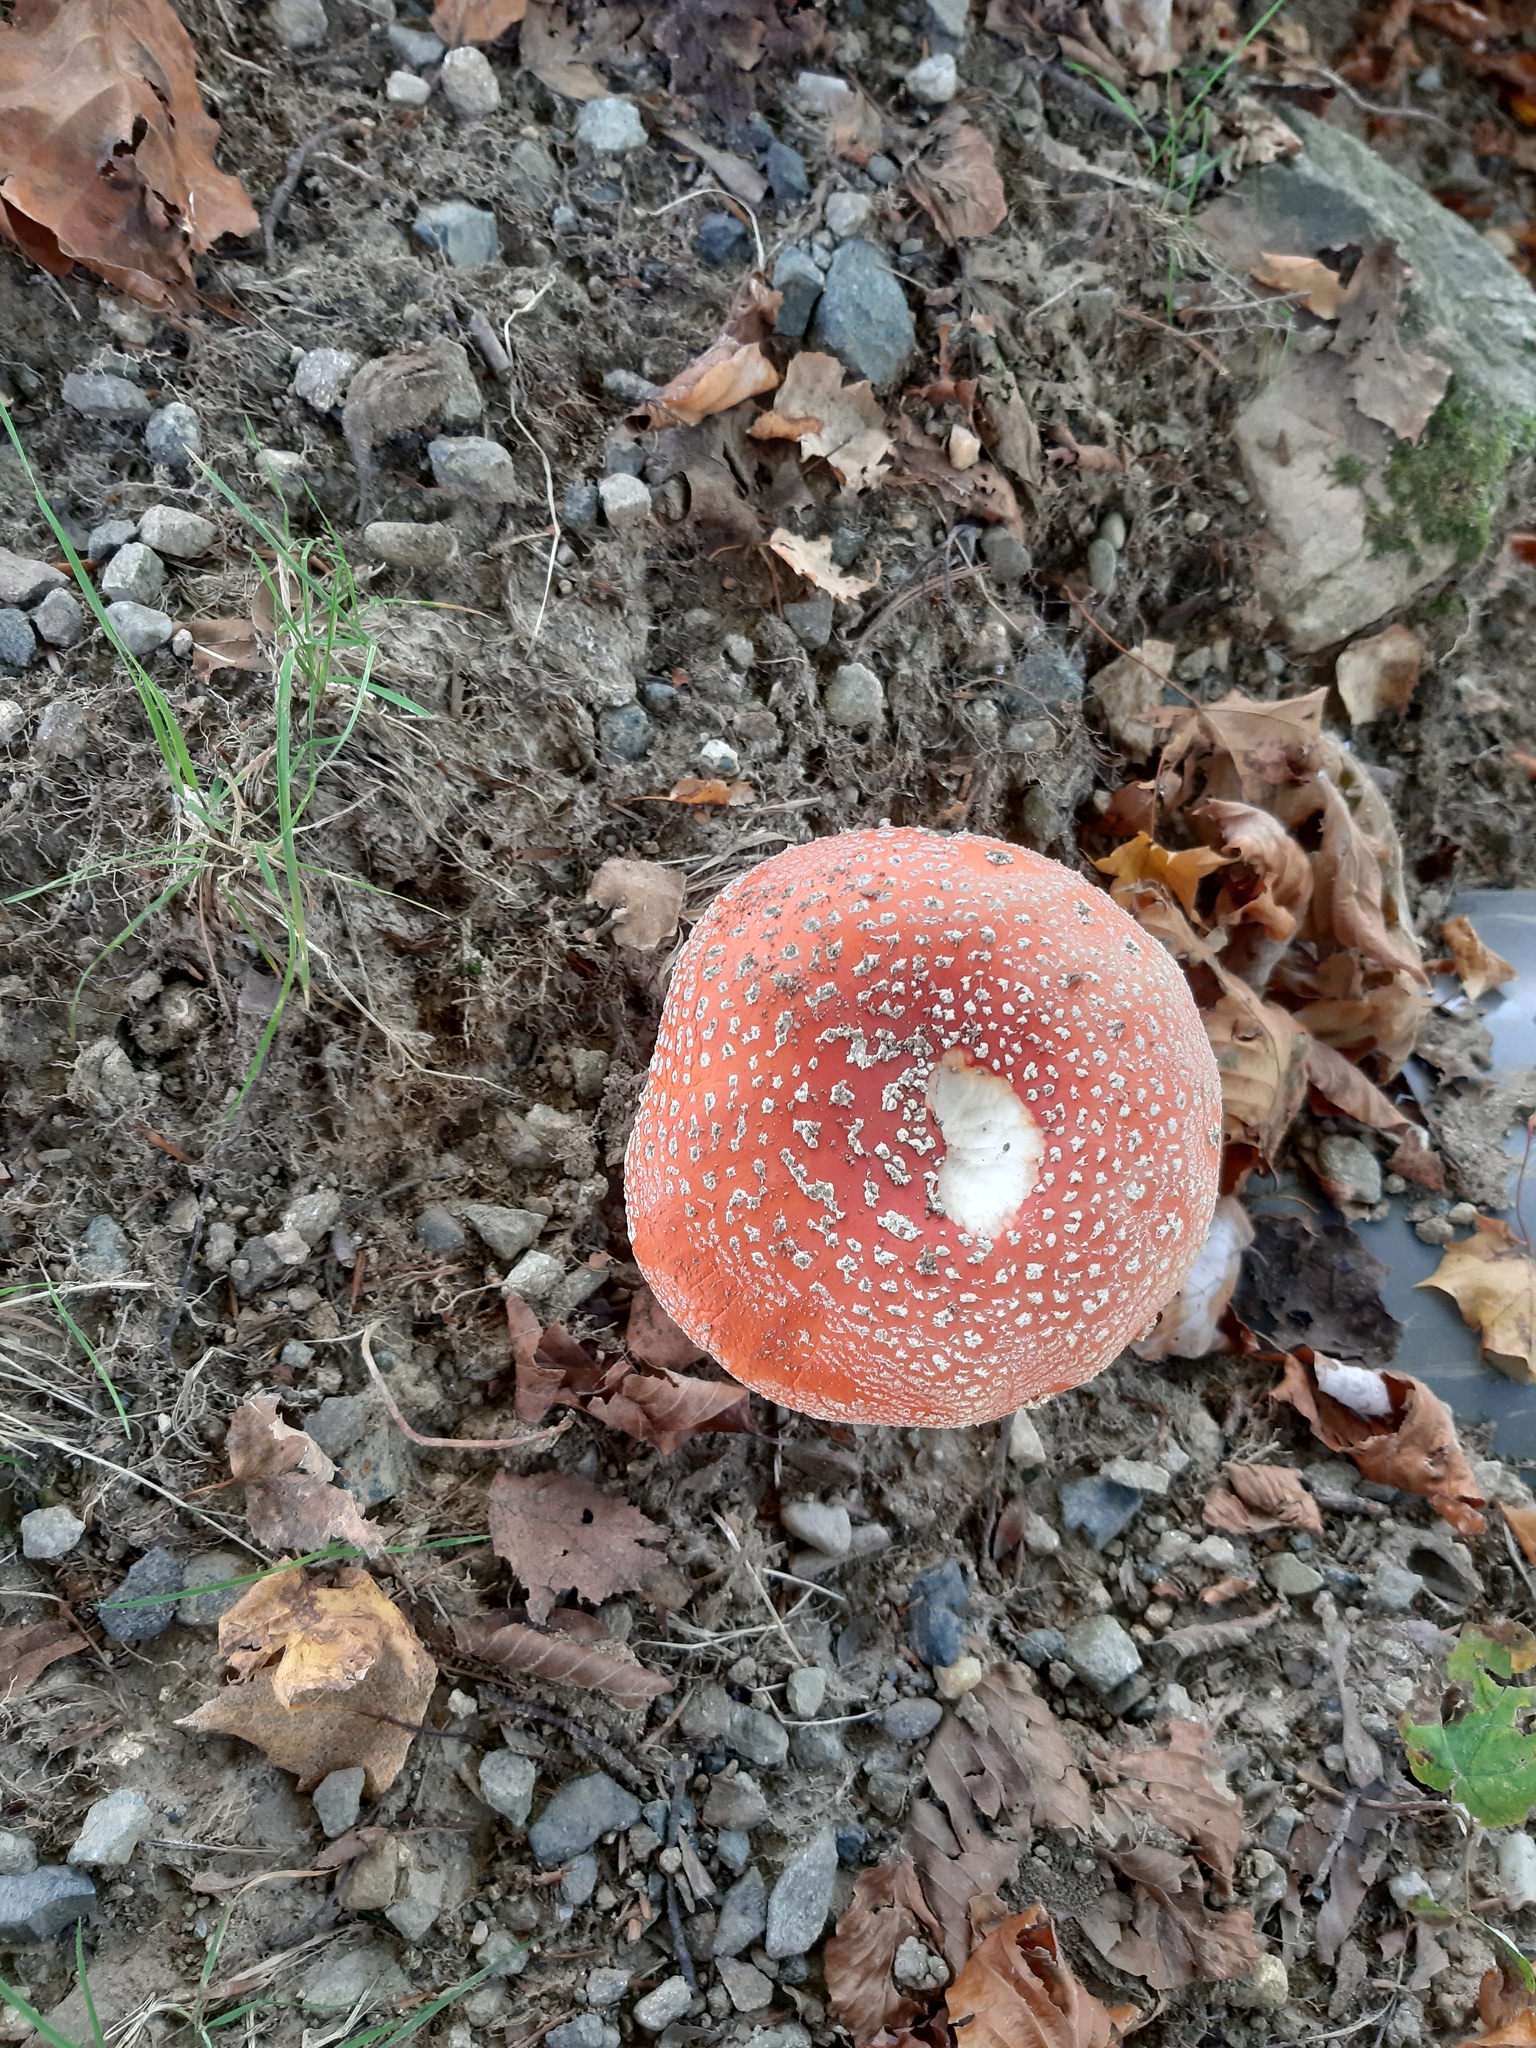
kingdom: Fungi
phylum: Basidiomycota
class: Agaricomycetes
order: Agaricales
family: Amanitaceae
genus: Amanita
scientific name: Amanita muscaria
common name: Fly agaric
